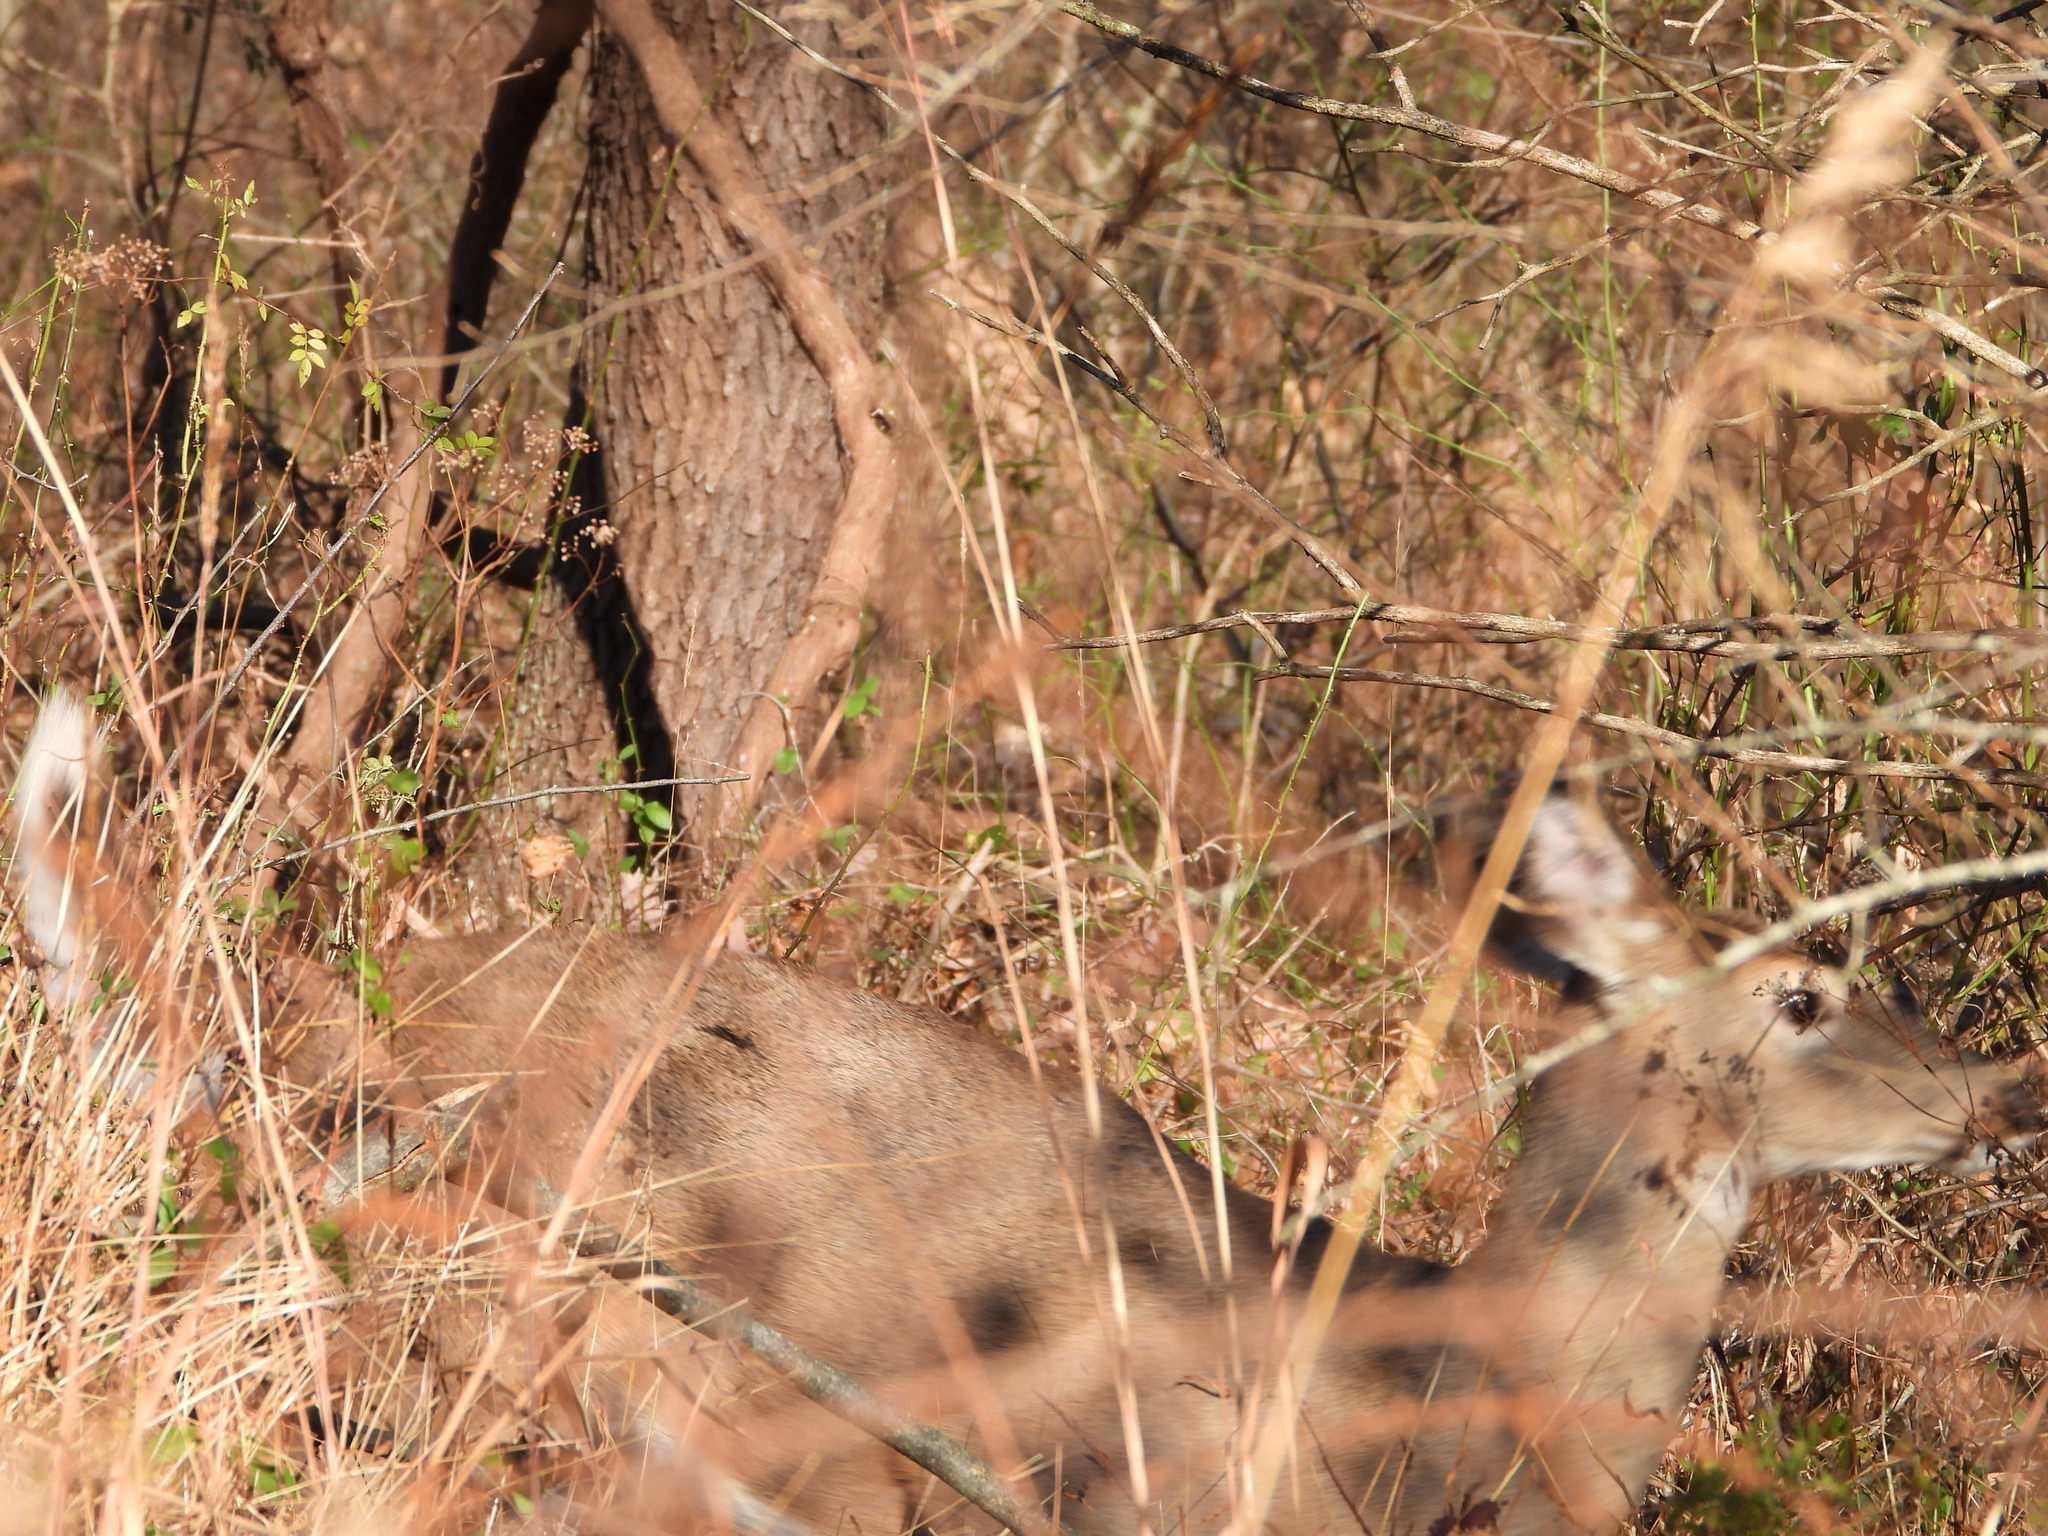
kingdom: Animalia
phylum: Chordata
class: Mammalia
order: Artiodactyla
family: Cervidae
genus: Odocoileus
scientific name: Odocoileus virginianus
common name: White-tailed deer
